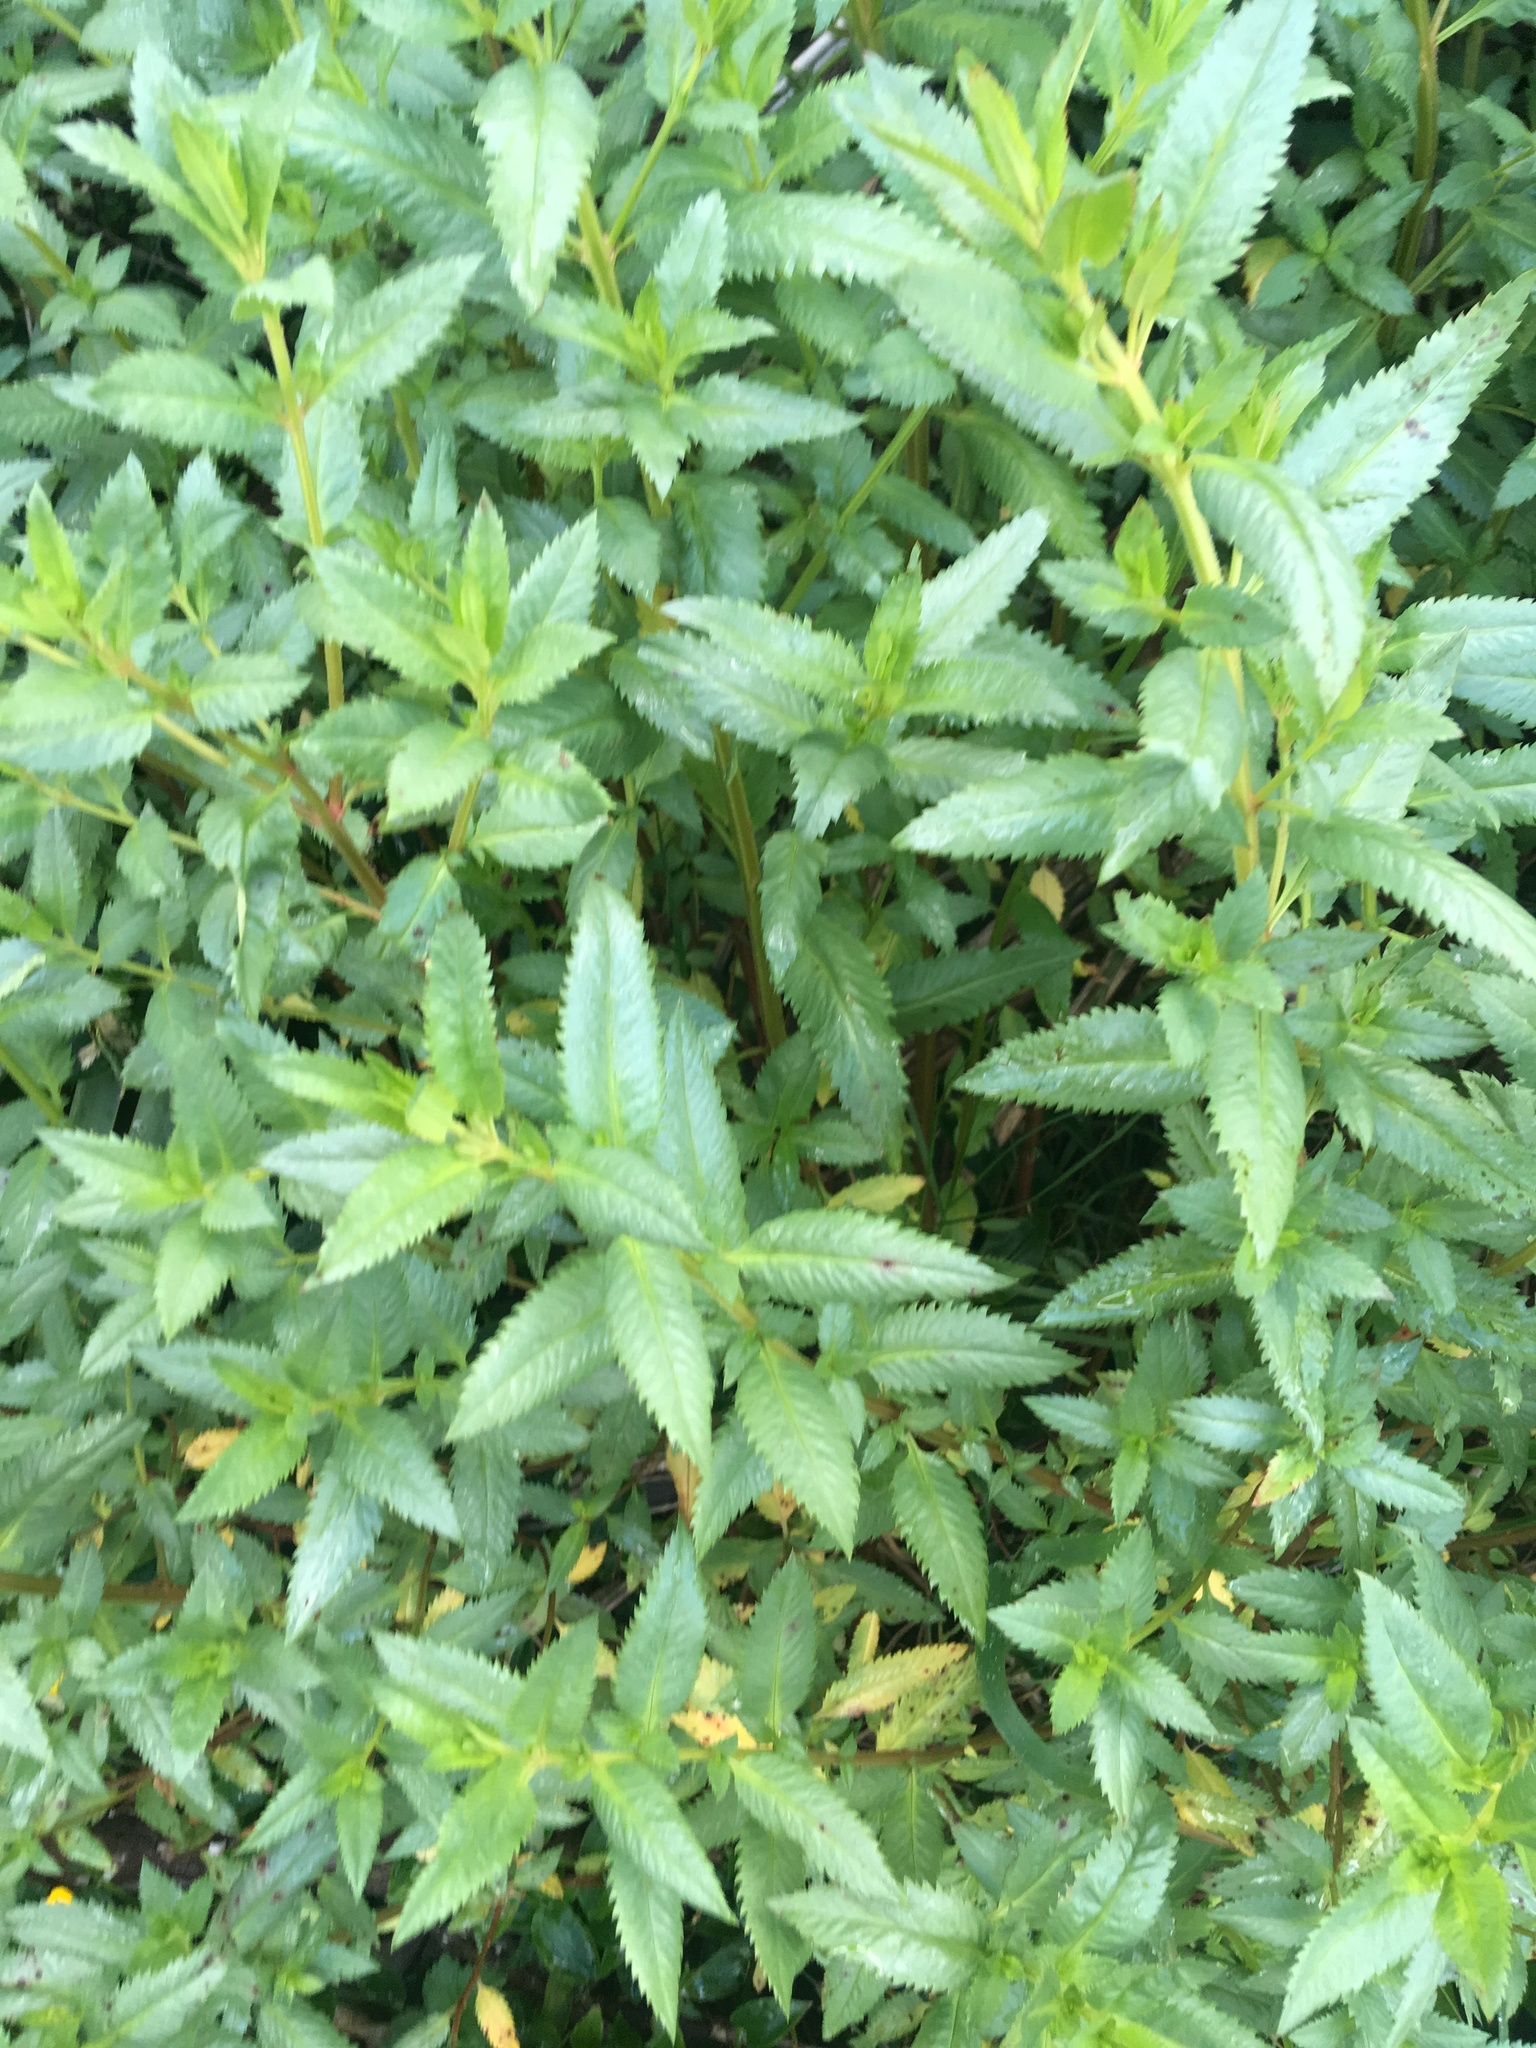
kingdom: Plantae
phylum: Tracheophyta
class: Magnoliopsida
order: Saxifragales
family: Haloragaceae
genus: Haloragis
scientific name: Haloragis erecta
